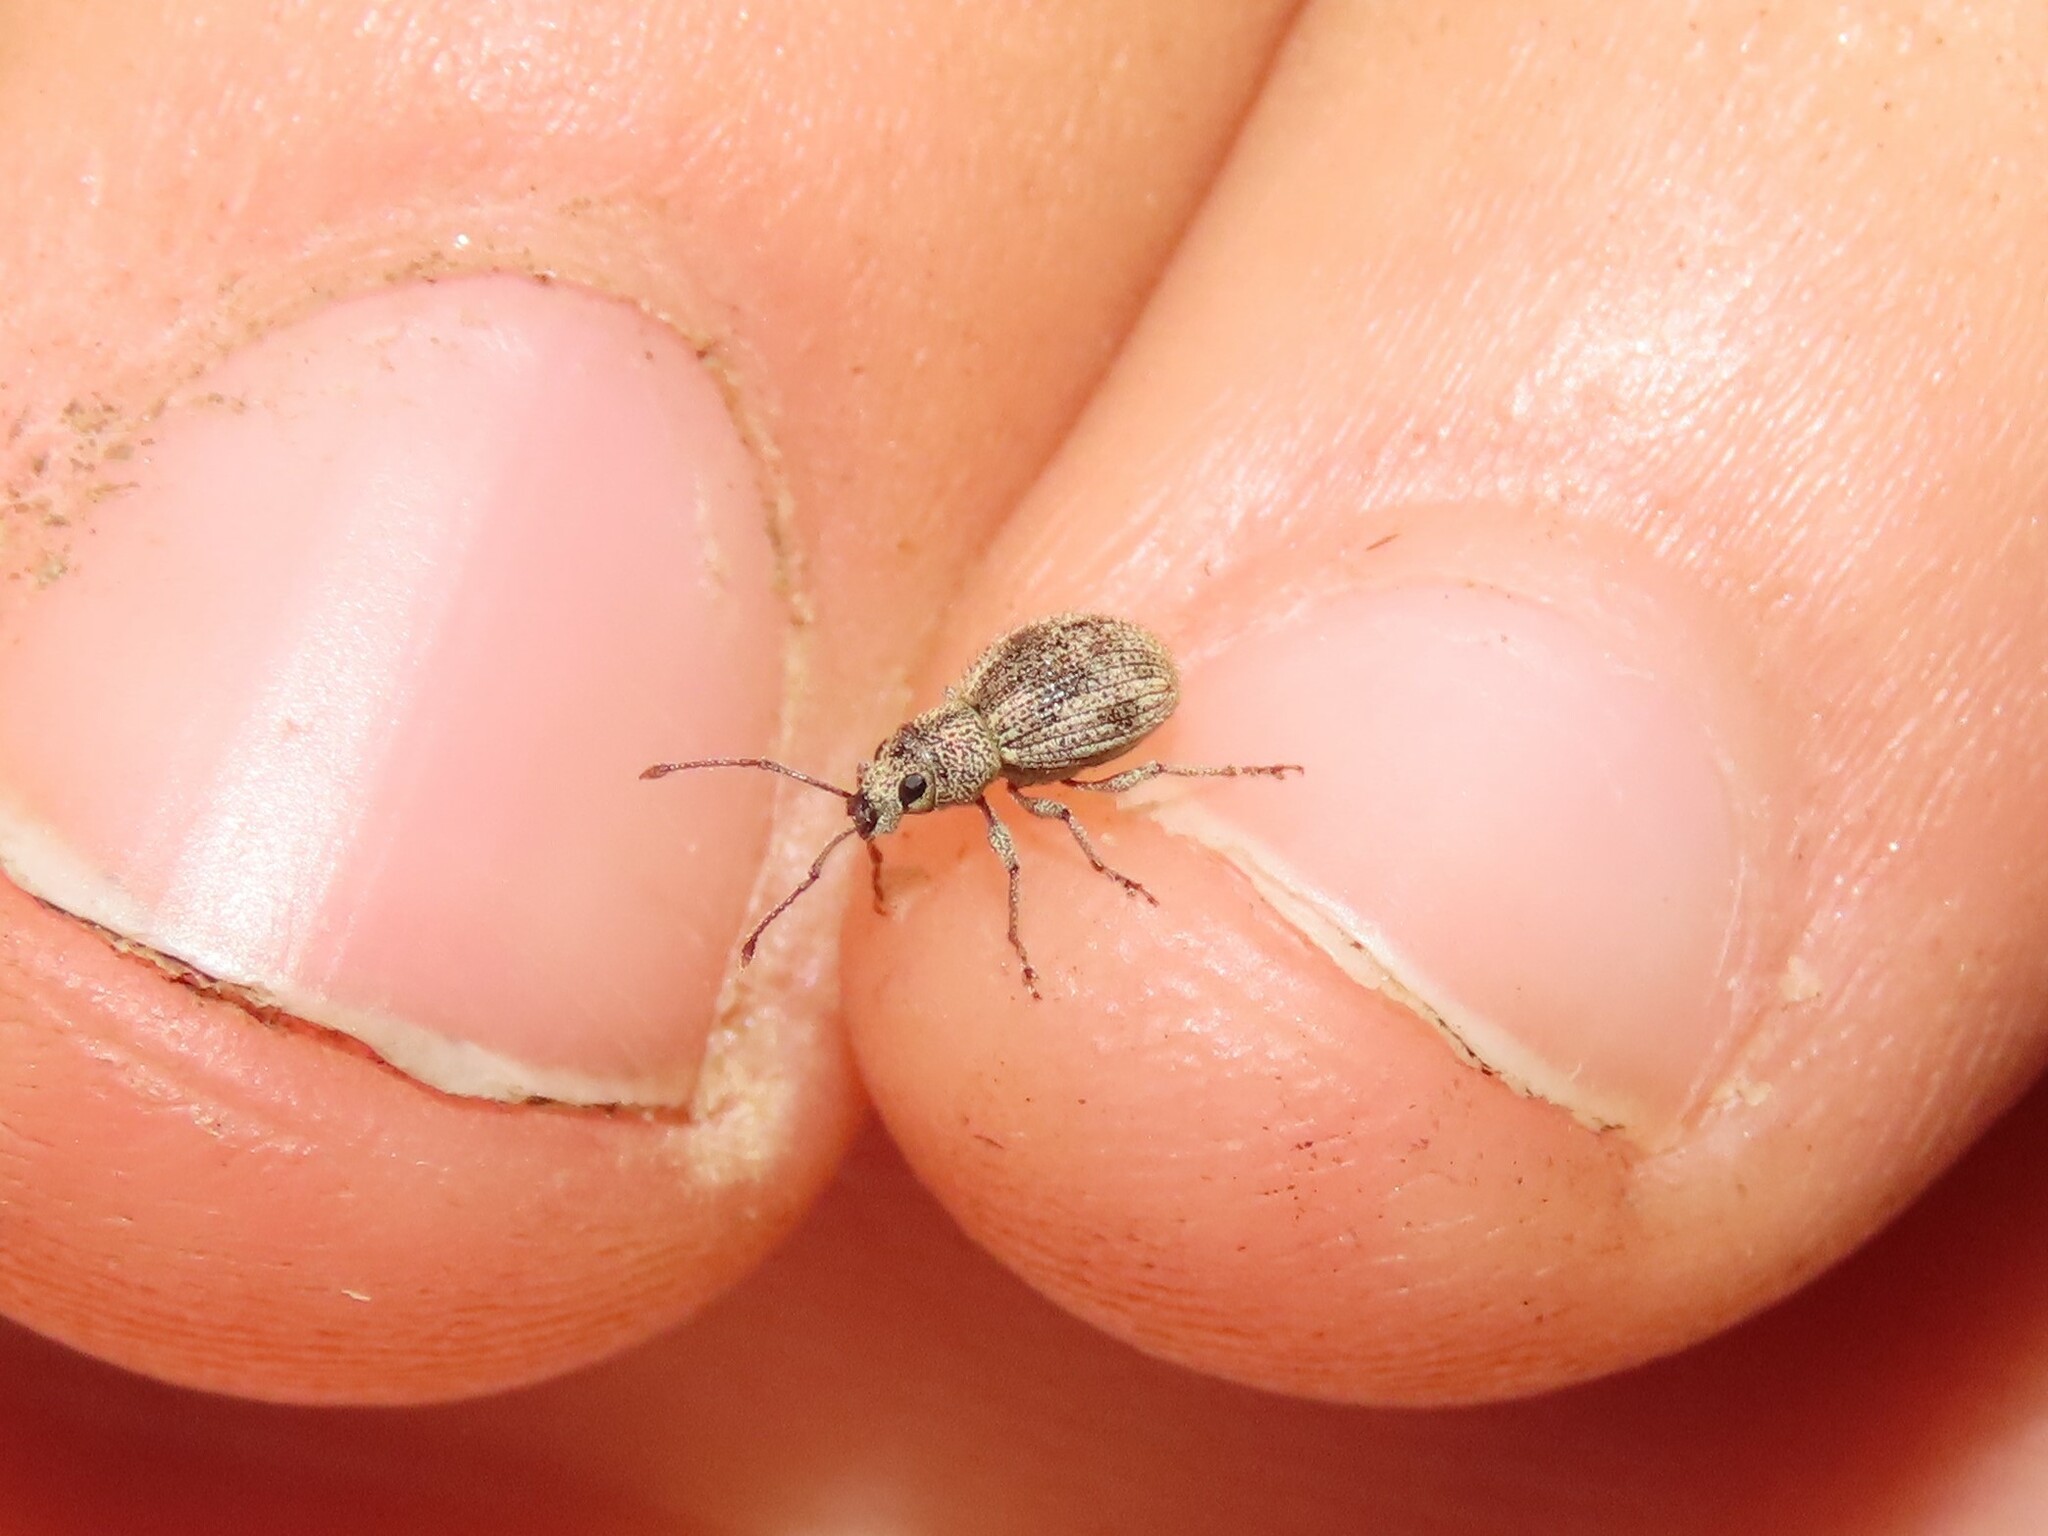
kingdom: Animalia
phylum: Arthropoda
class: Insecta
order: Coleoptera
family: Curculionidae
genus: Calomycterus
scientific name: Calomycterus setarius
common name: Weevil
